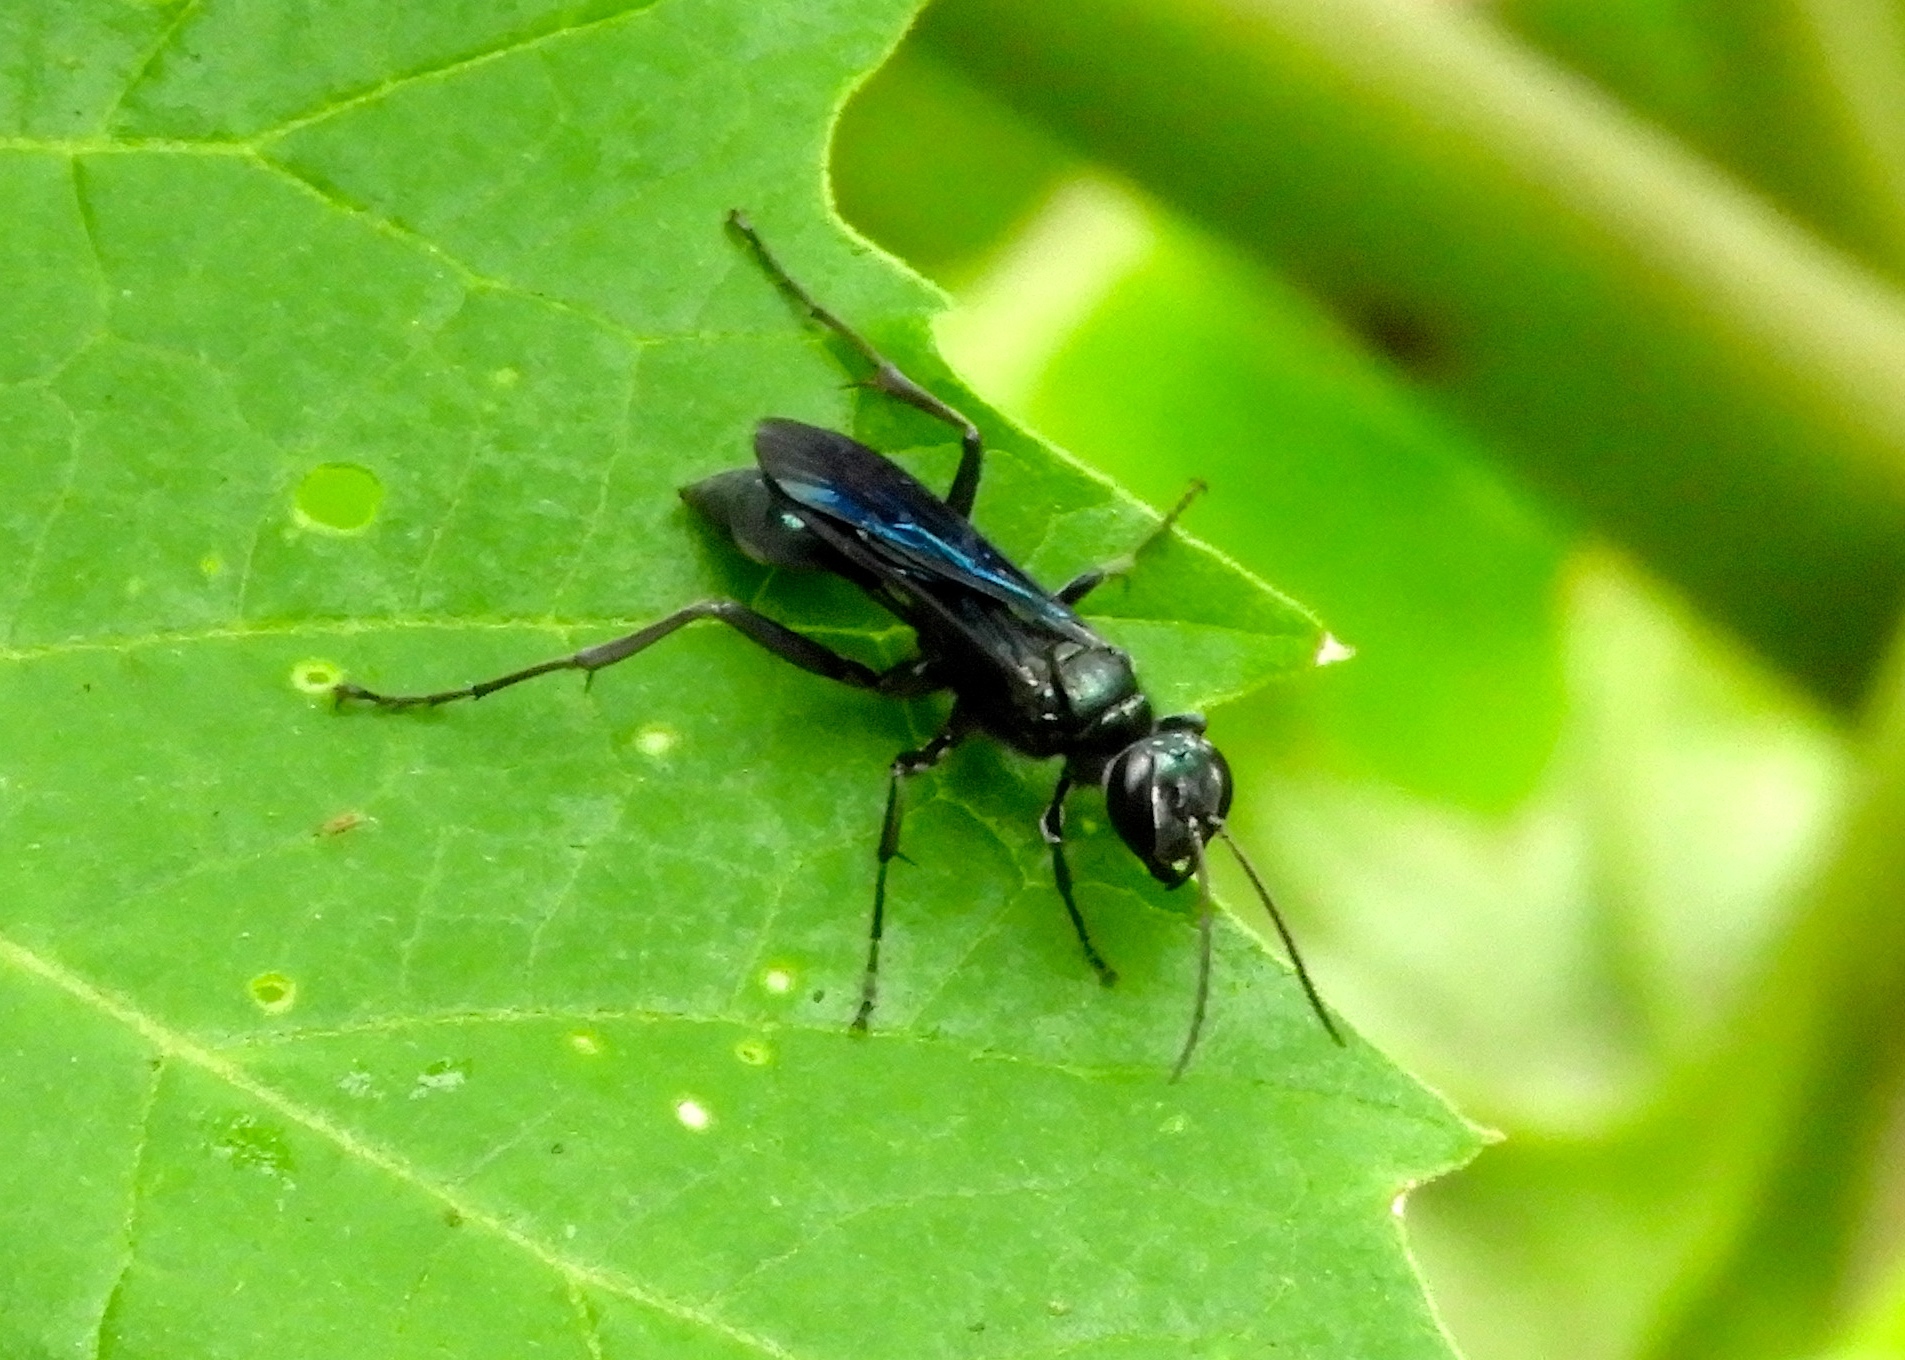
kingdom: Animalia
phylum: Arthropoda
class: Insecta
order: Hymenoptera
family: Sphecidae
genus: Chalybion
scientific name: Chalybion
